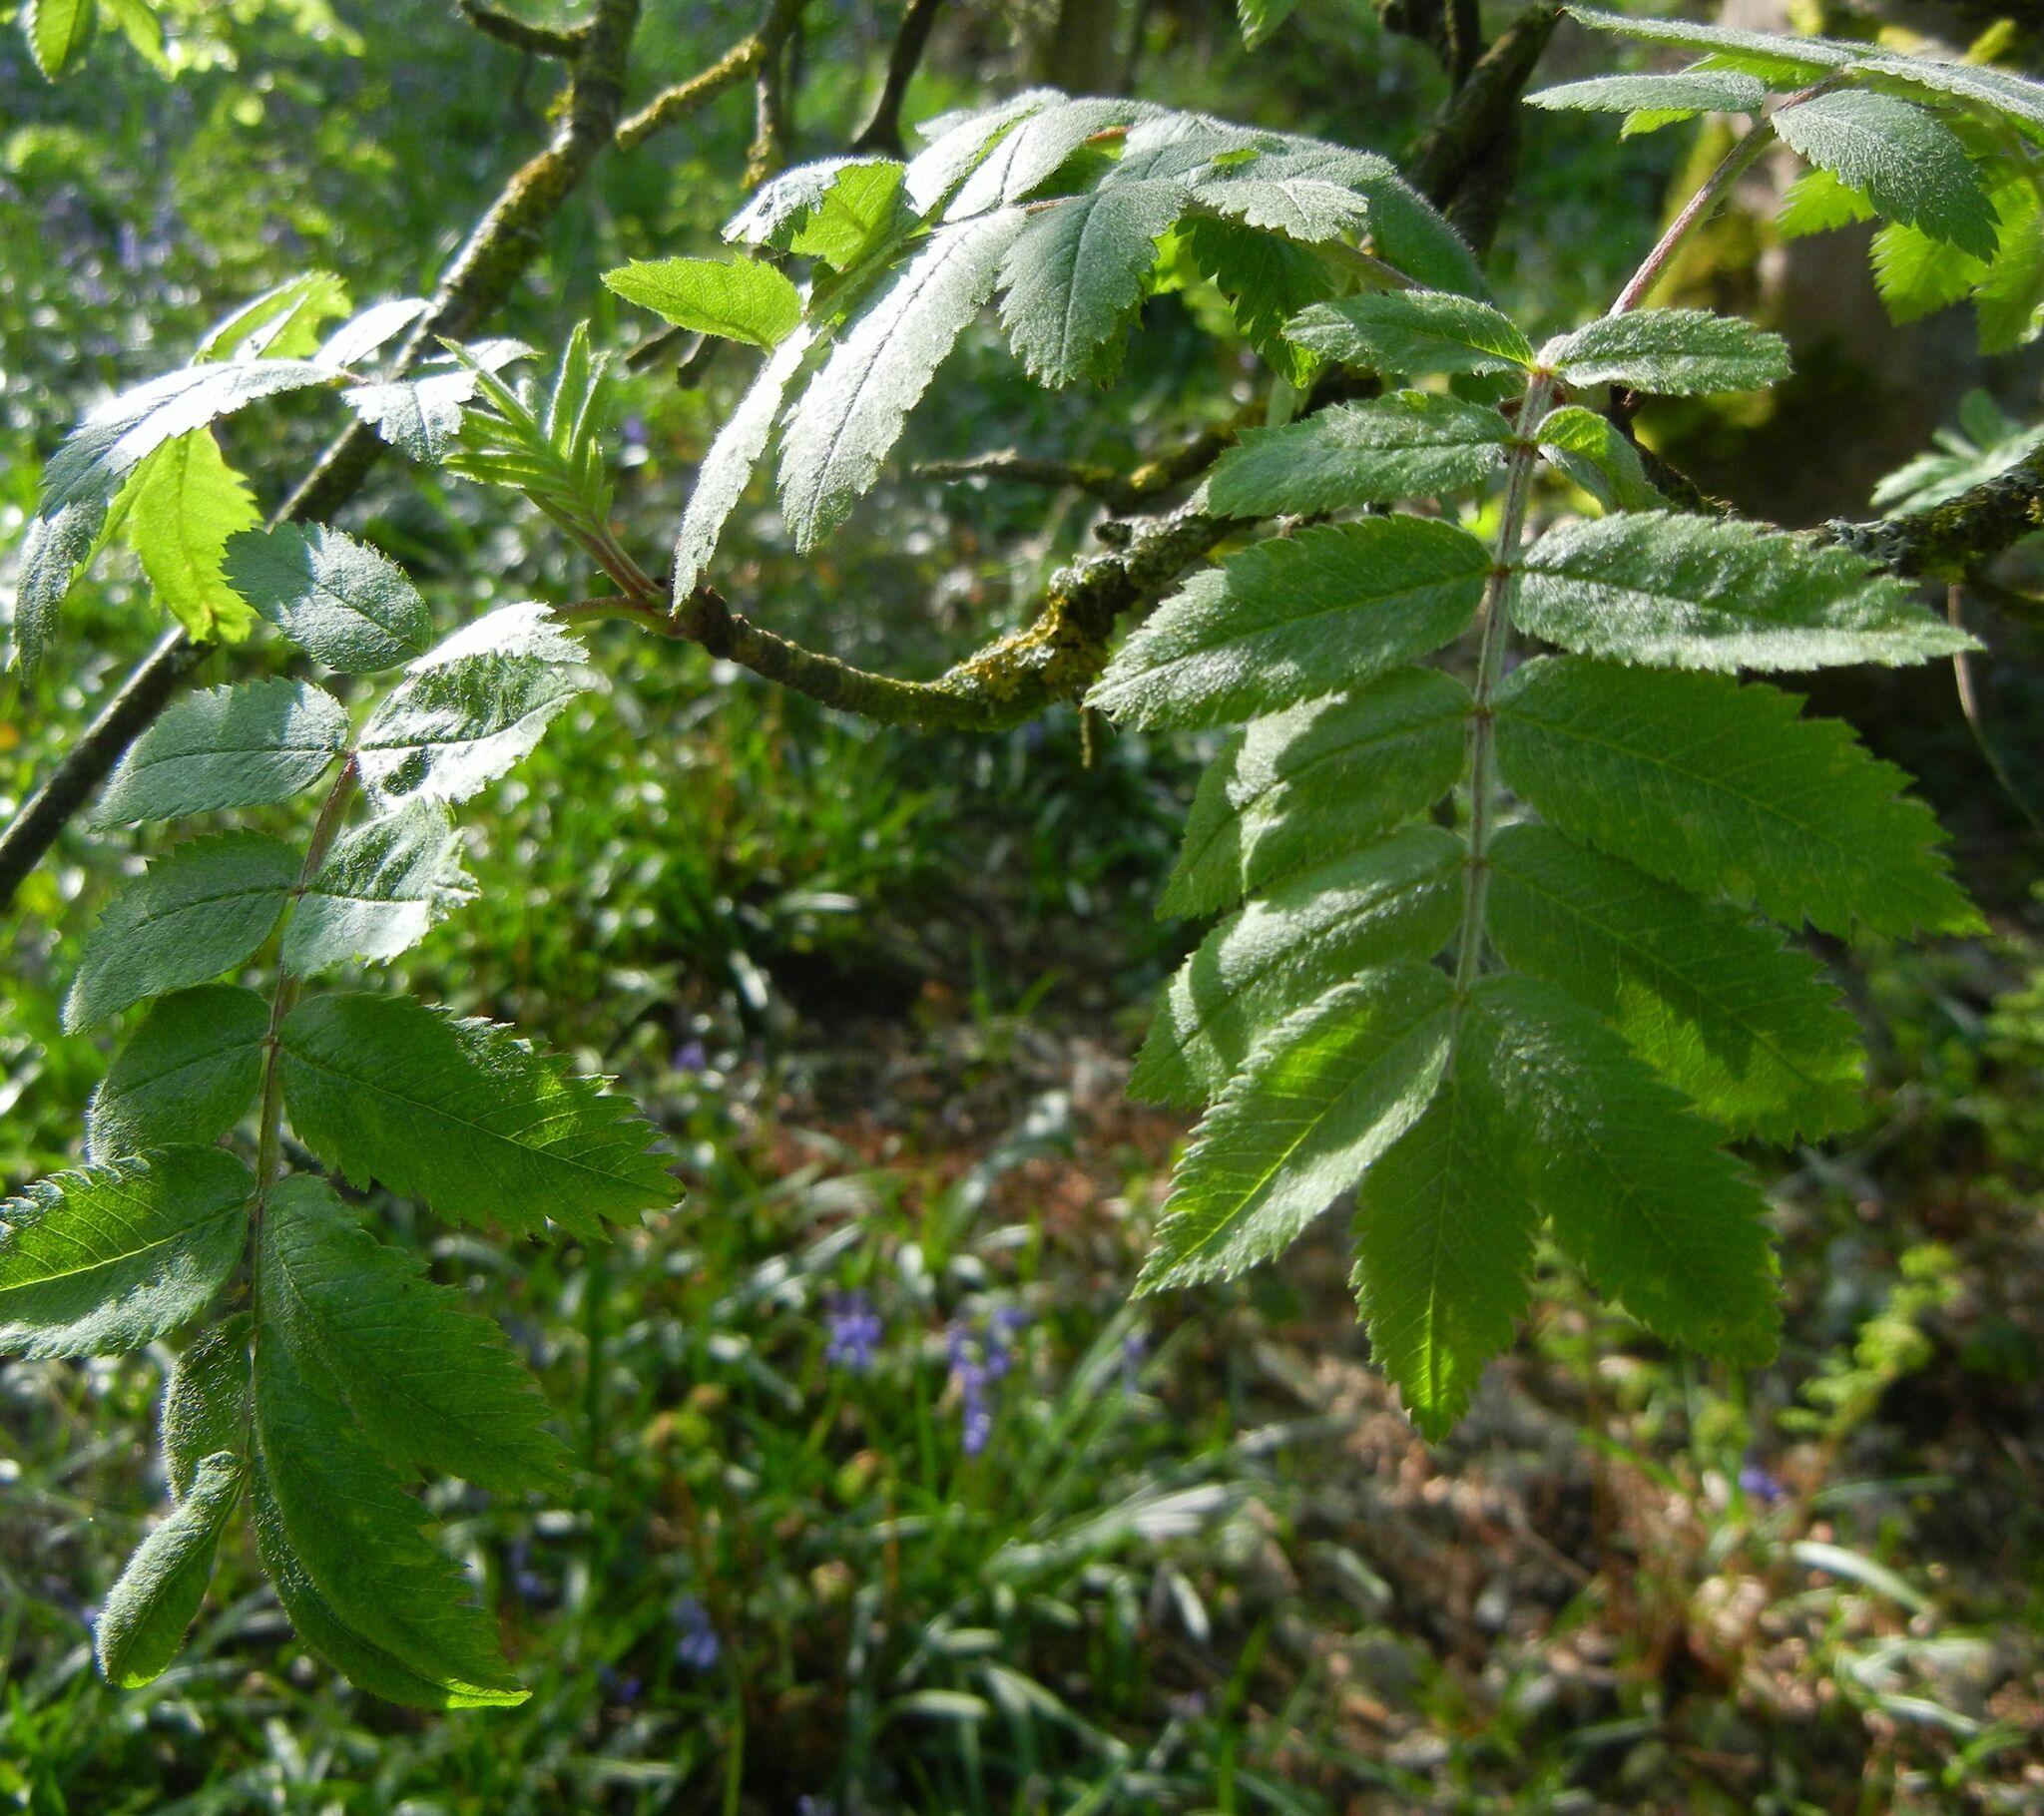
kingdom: Plantae
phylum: Tracheophyta
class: Magnoliopsida
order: Rosales
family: Rosaceae
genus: Sorbus
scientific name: Sorbus aucuparia
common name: Rowan
